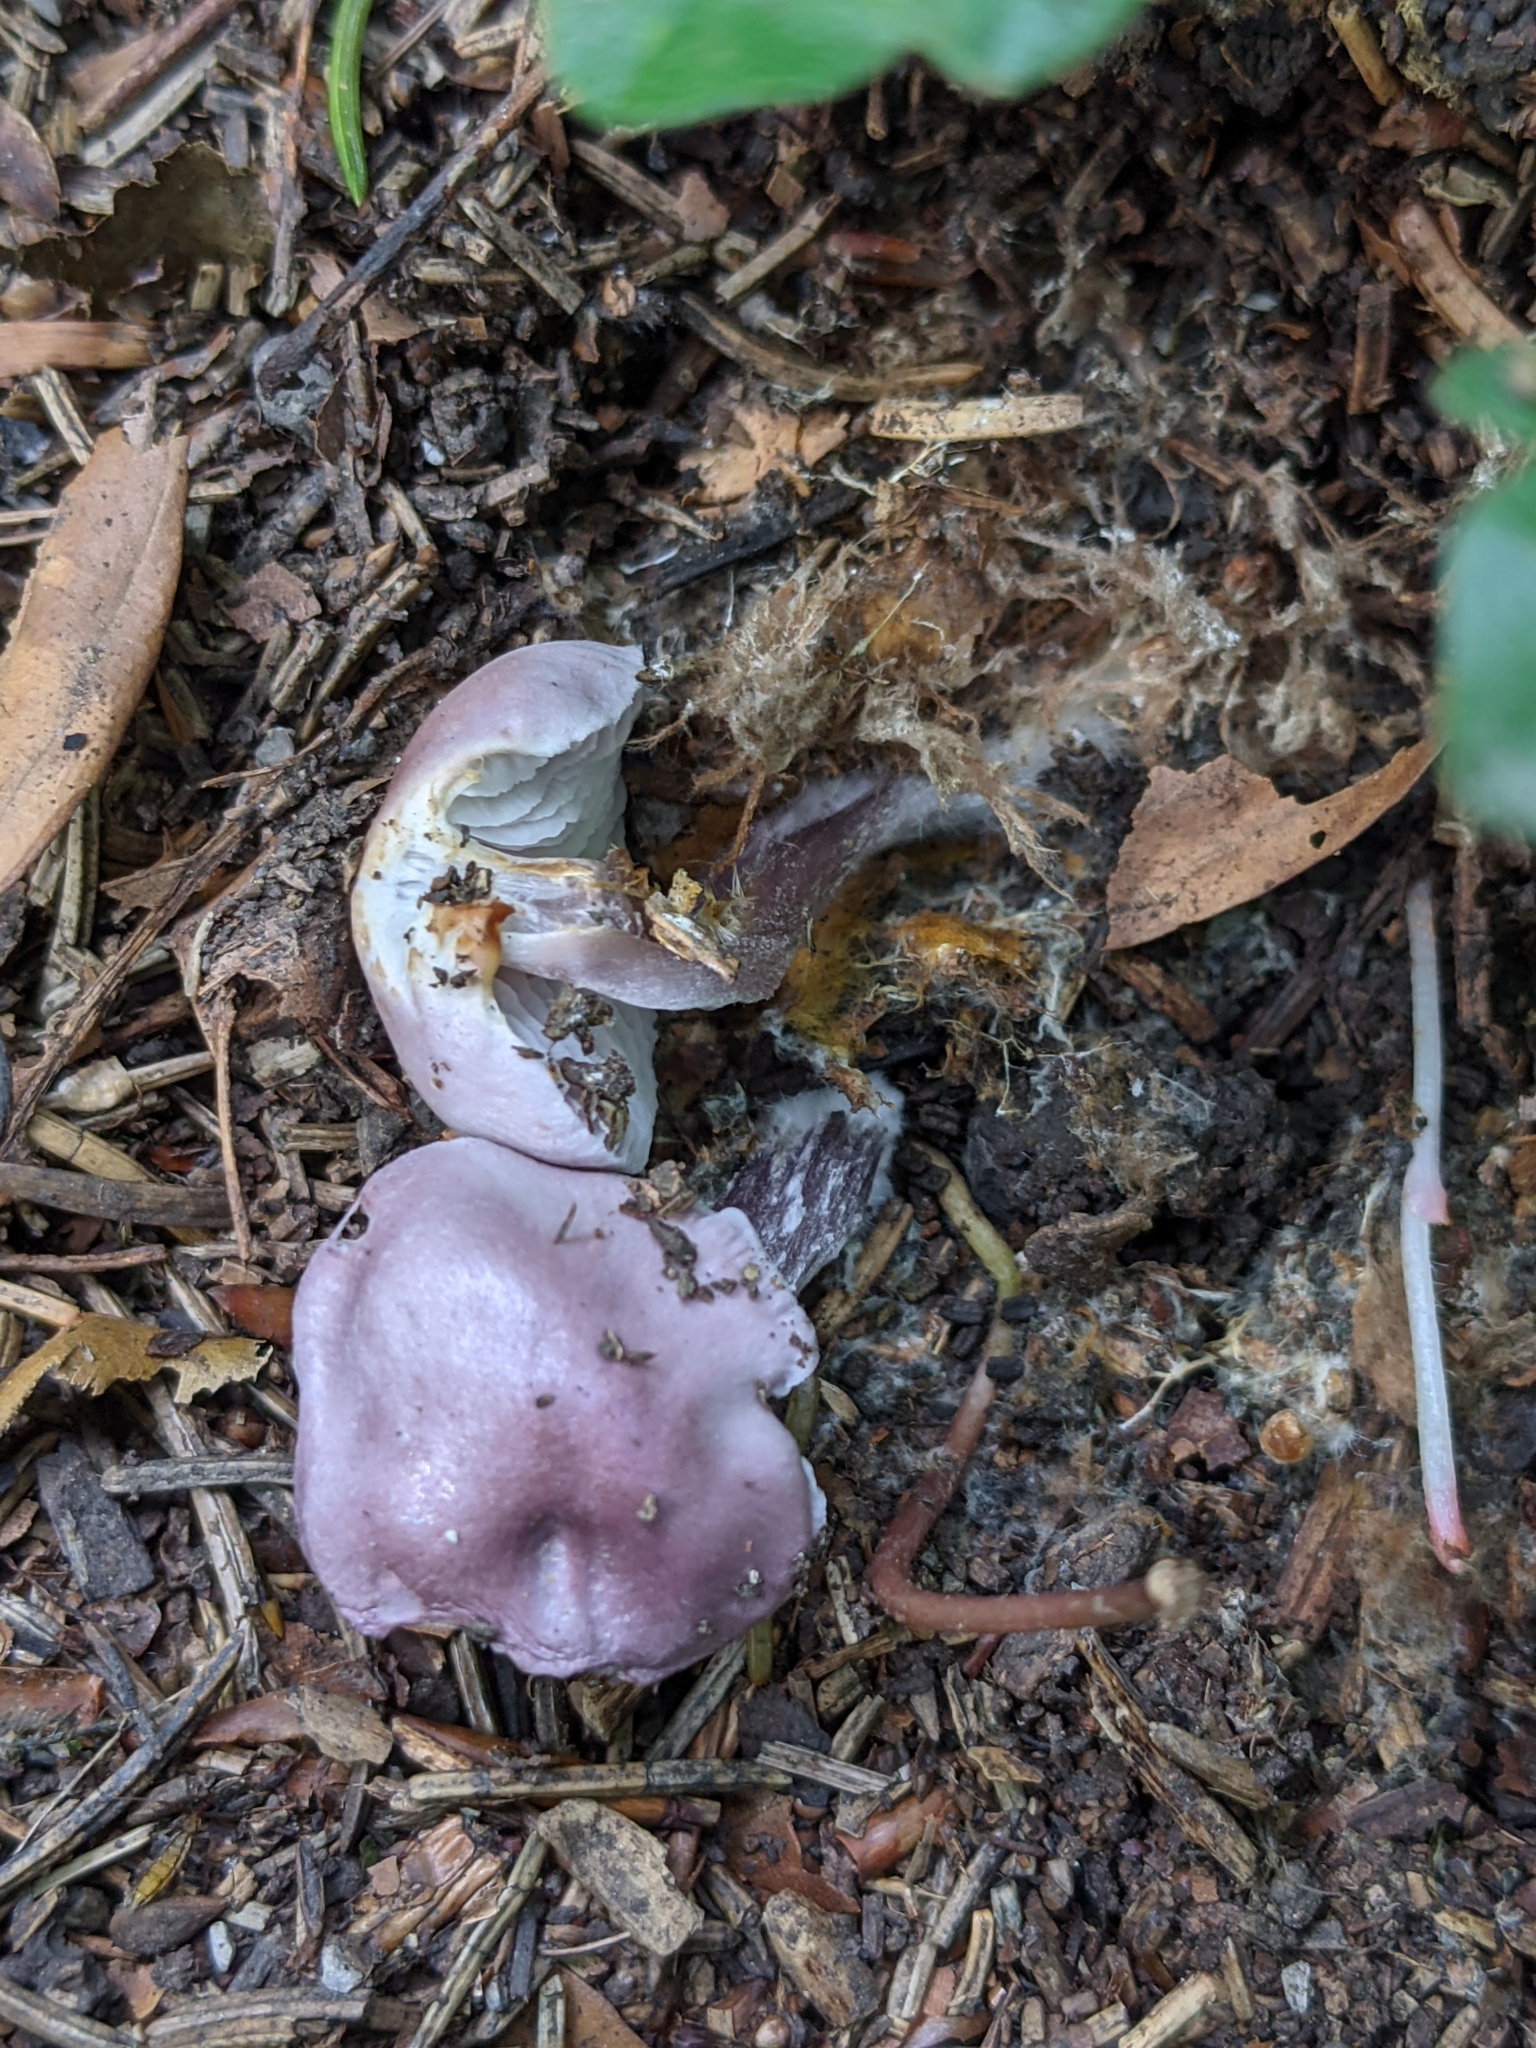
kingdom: Fungi
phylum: Basidiomycota
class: Agaricomycetes
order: Agaricales
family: Mycenaceae
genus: Mycena
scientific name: Mycena pura
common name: Lilac bonnet
